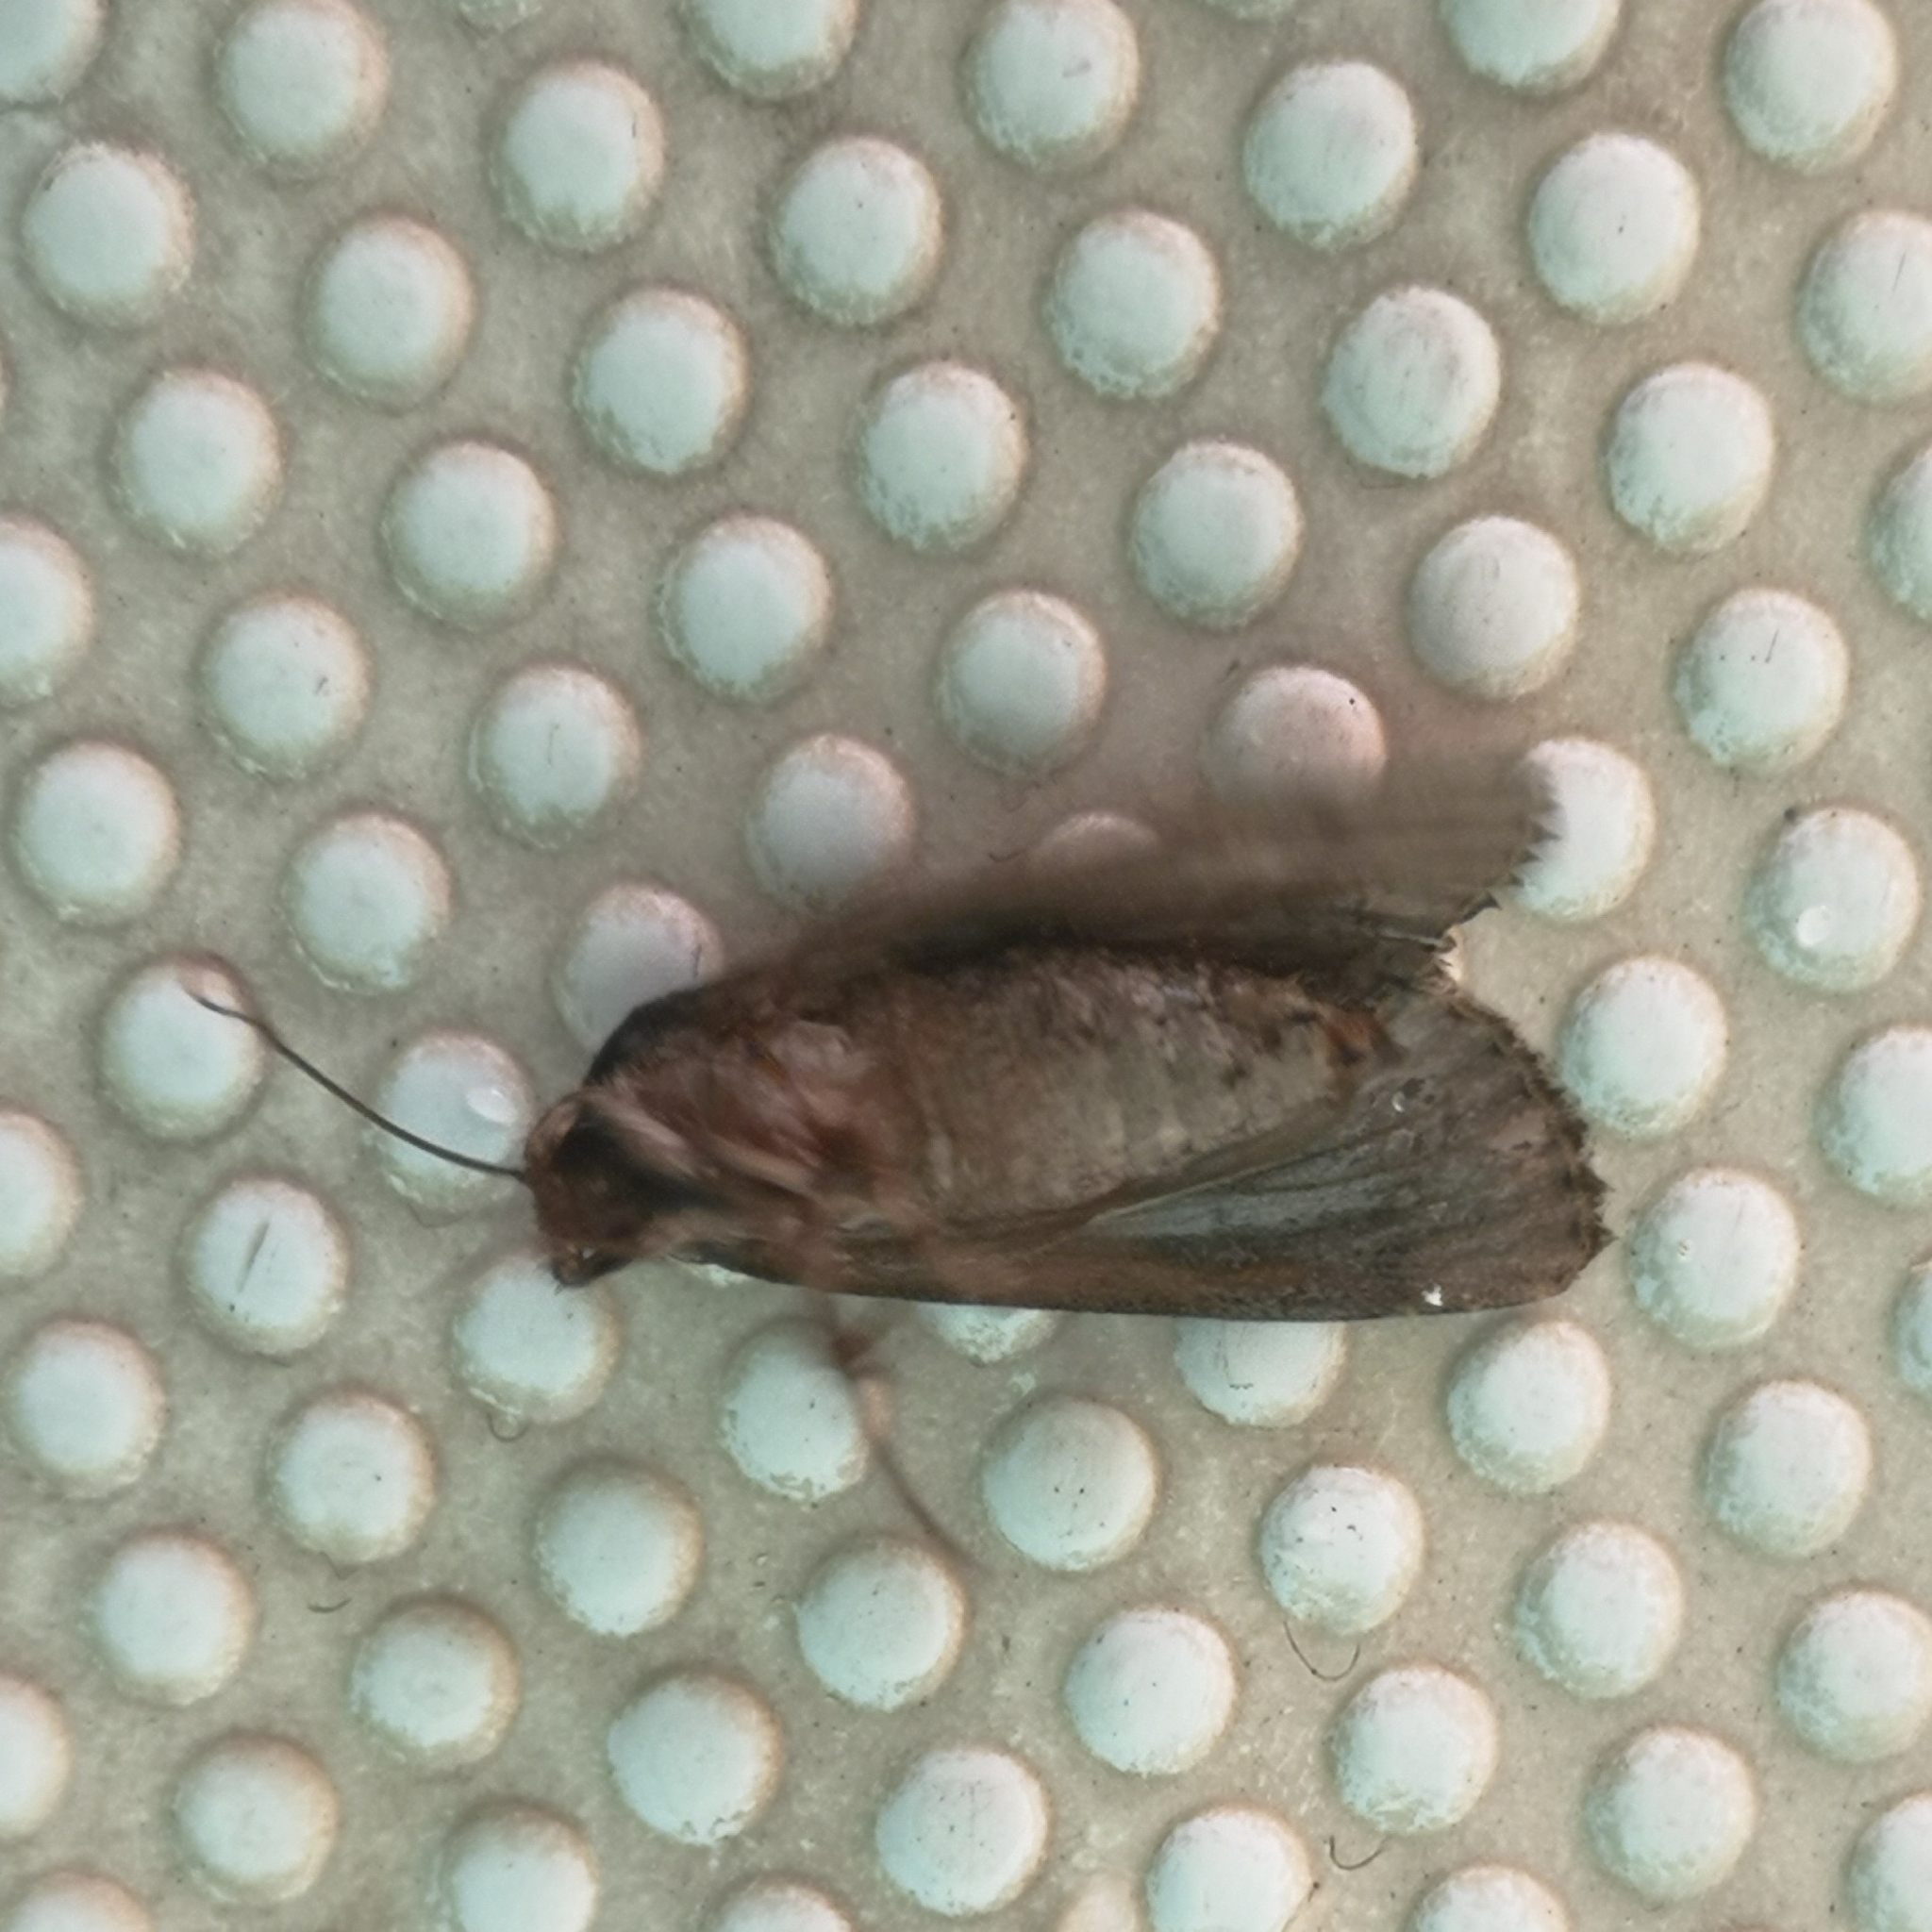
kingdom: Animalia
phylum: Arthropoda
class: Insecta
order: Lepidoptera
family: Pyralidae
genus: Galleria
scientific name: Galleria mellonella
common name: Greater wax moth
